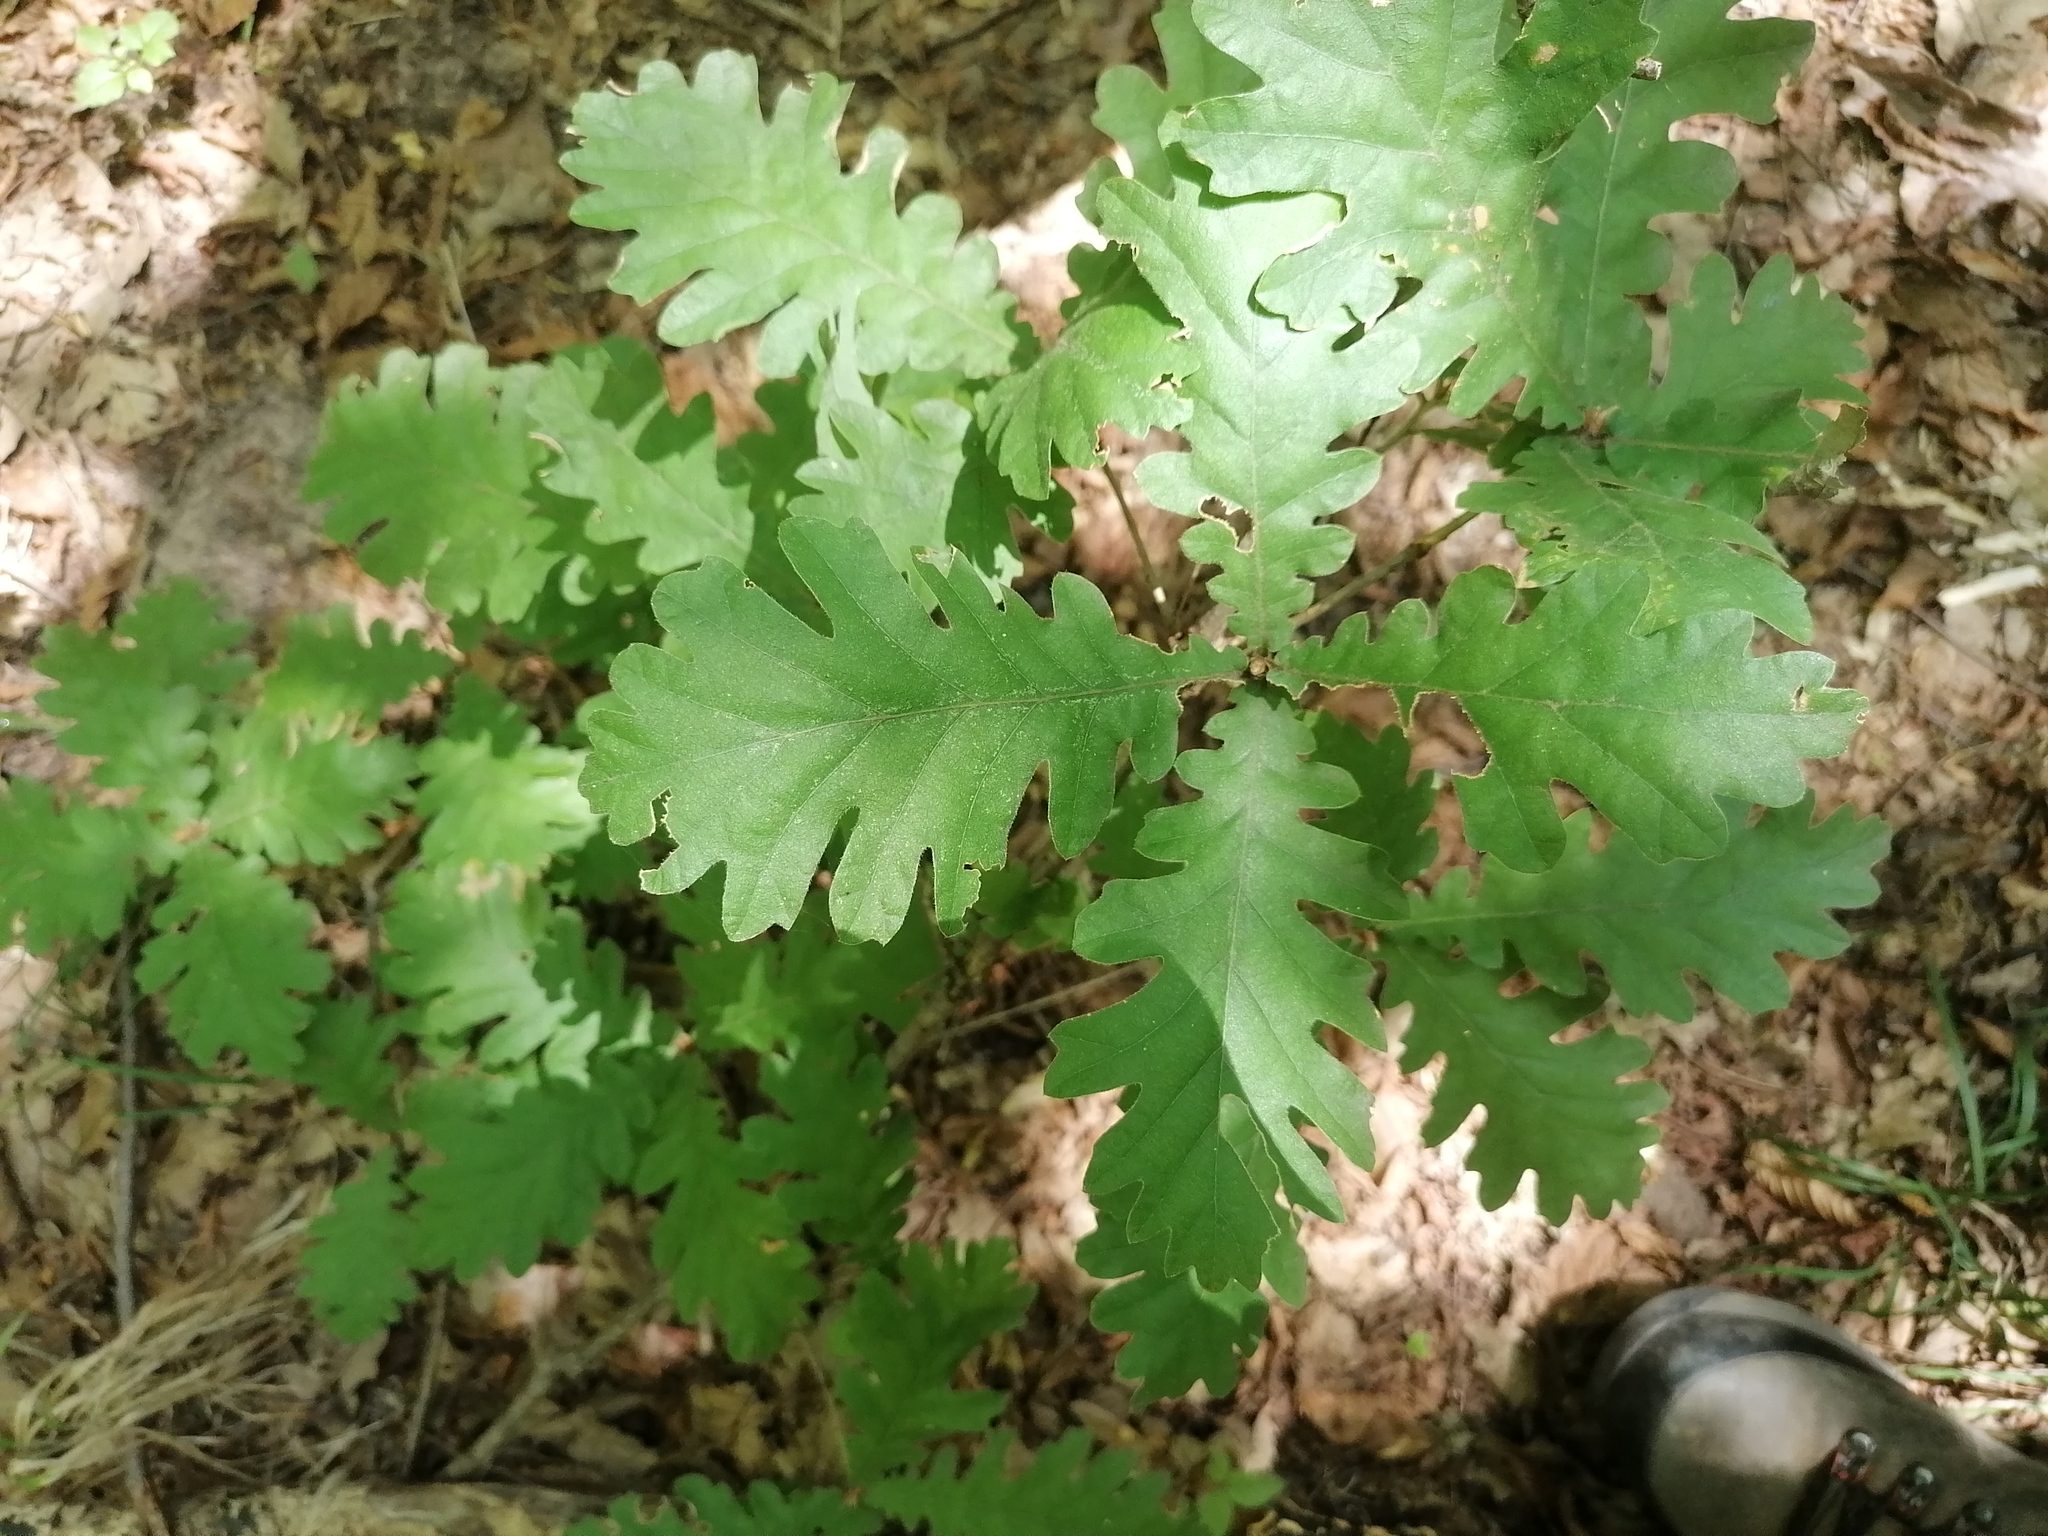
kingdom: Plantae
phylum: Tracheophyta
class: Magnoliopsida
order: Fagales
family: Fagaceae
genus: Quercus
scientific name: Quercus conferta
